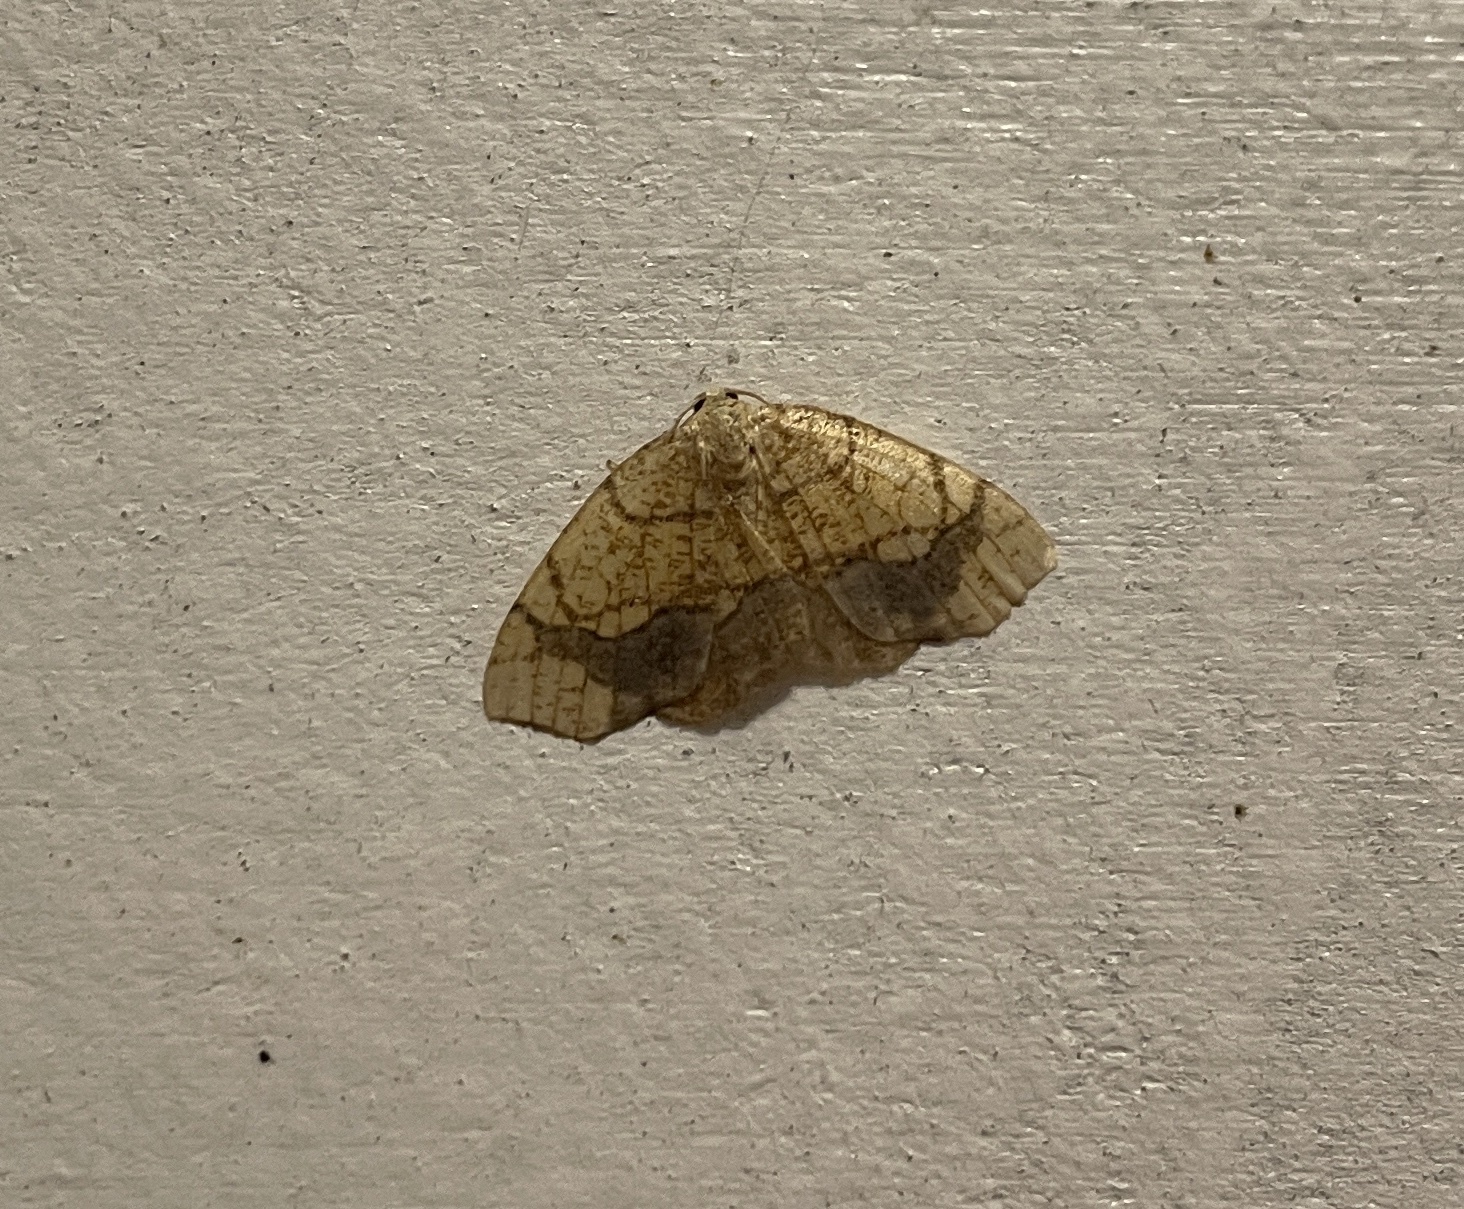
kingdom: Animalia
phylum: Arthropoda
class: Insecta
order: Lepidoptera
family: Geometridae
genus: Nematocampa
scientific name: Nematocampa resistaria
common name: Horned spanworm moth
